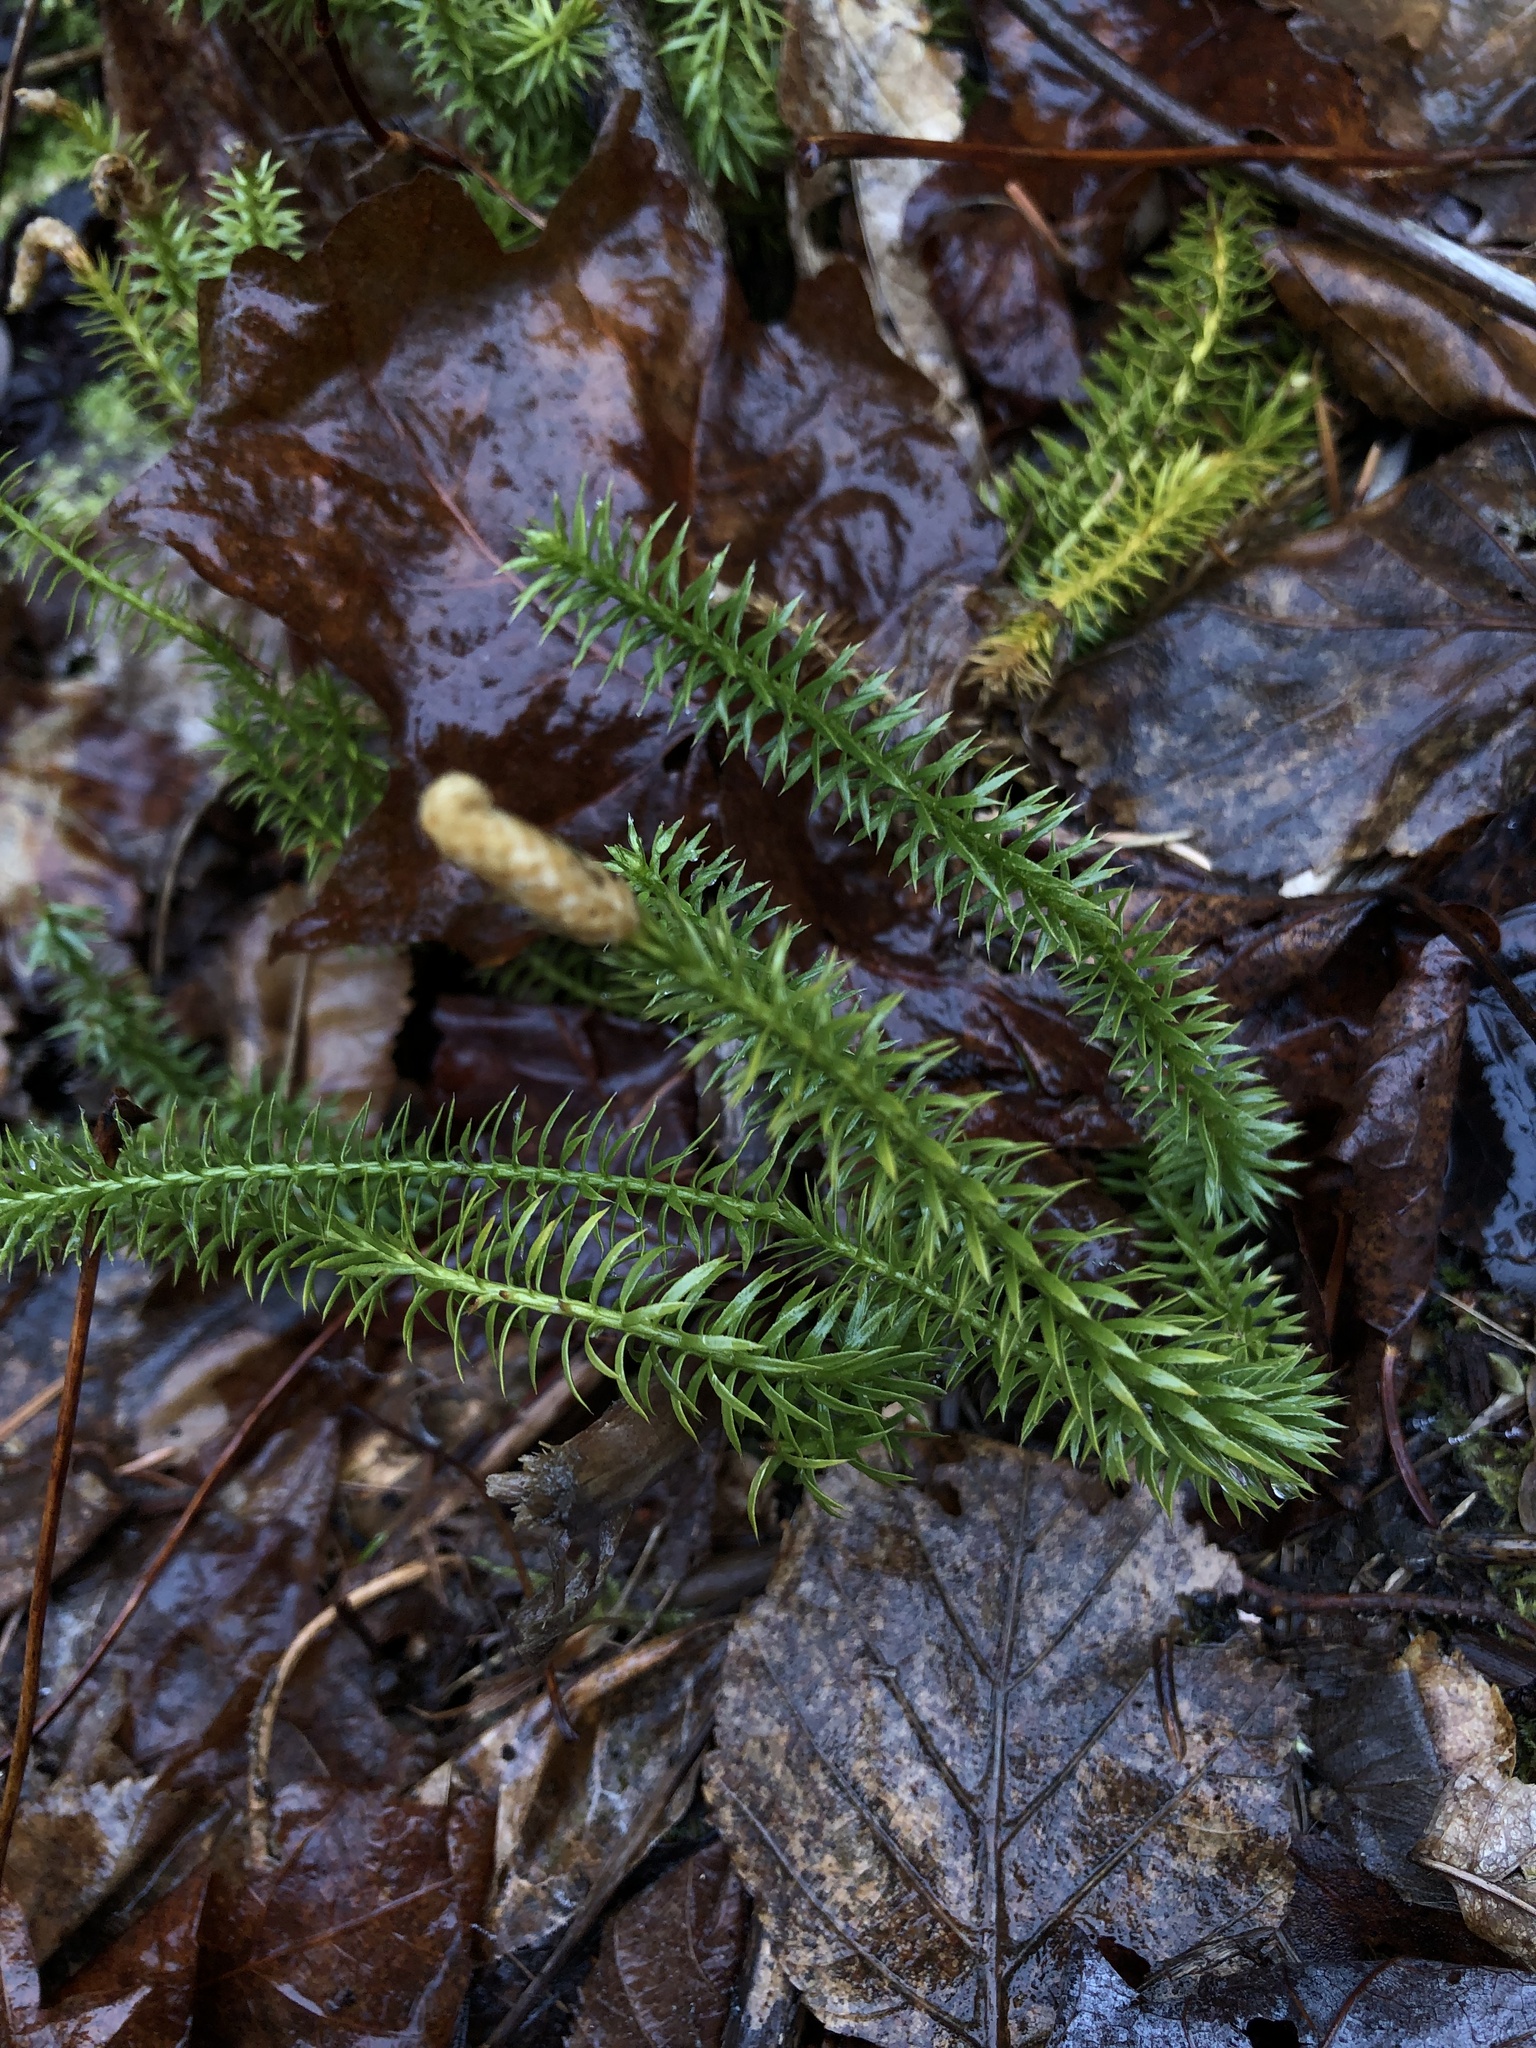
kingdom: Plantae
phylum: Tracheophyta
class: Lycopodiopsida
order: Lycopodiales
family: Lycopodiaceae
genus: Spinulum
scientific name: Spinulum annotinum
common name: Interrupted club-moss
